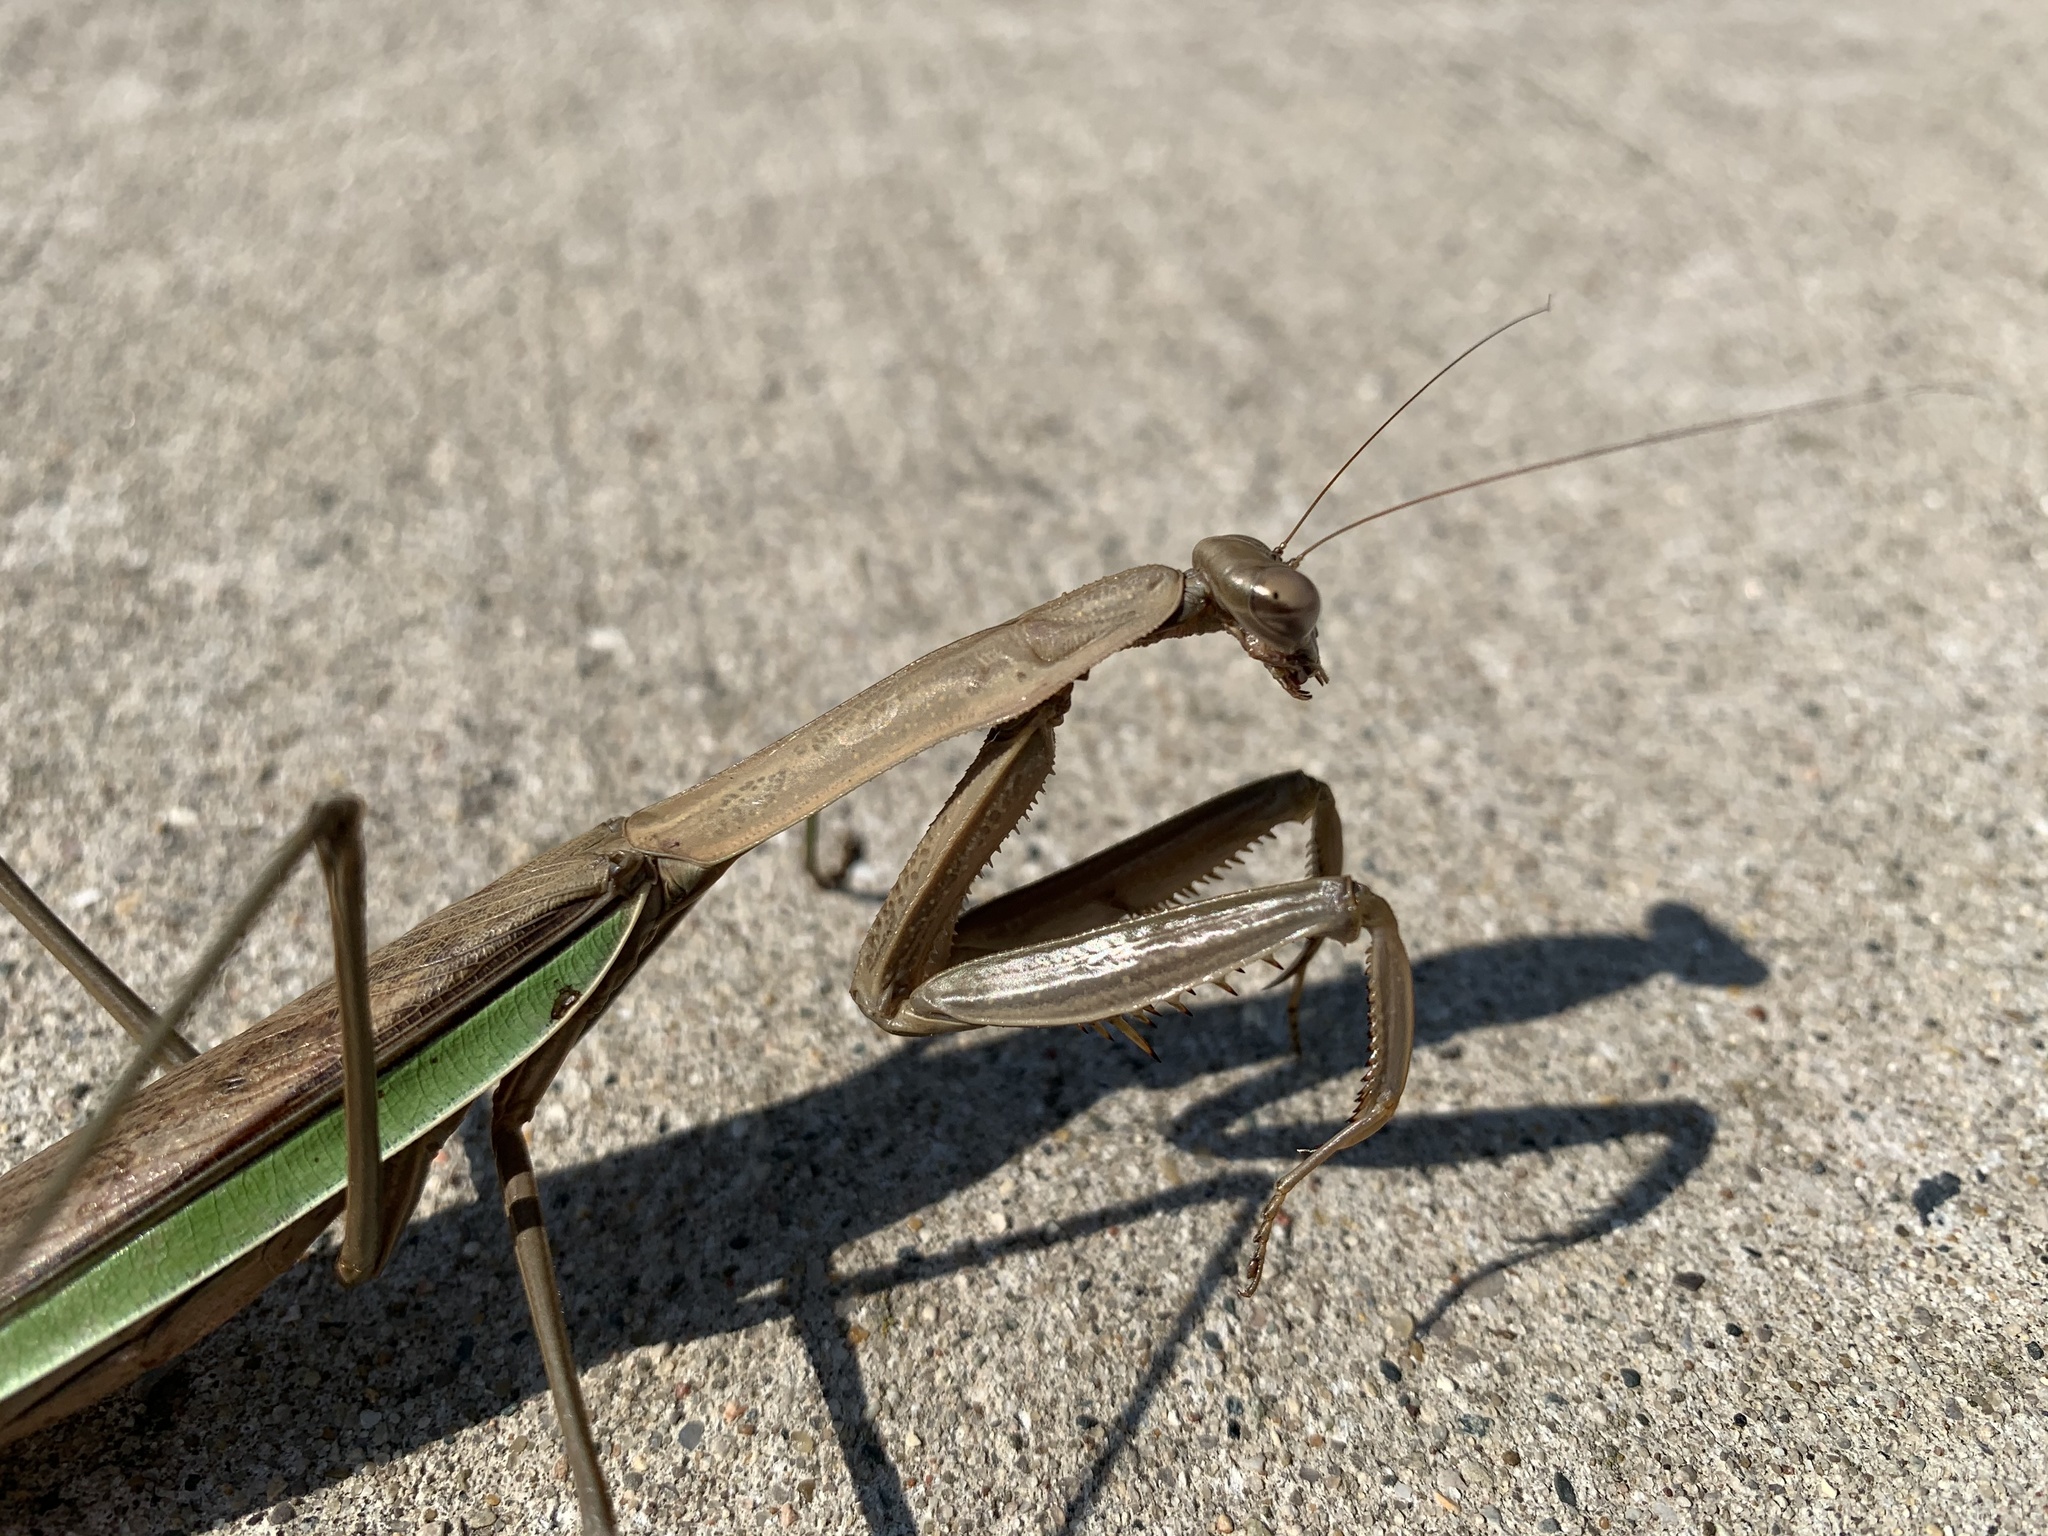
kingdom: Animalia
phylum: Arthropoda
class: Insecta
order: Mantodea
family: Mantidae
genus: Tenodera
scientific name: Tenodera sinensis
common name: Chinese mantis
